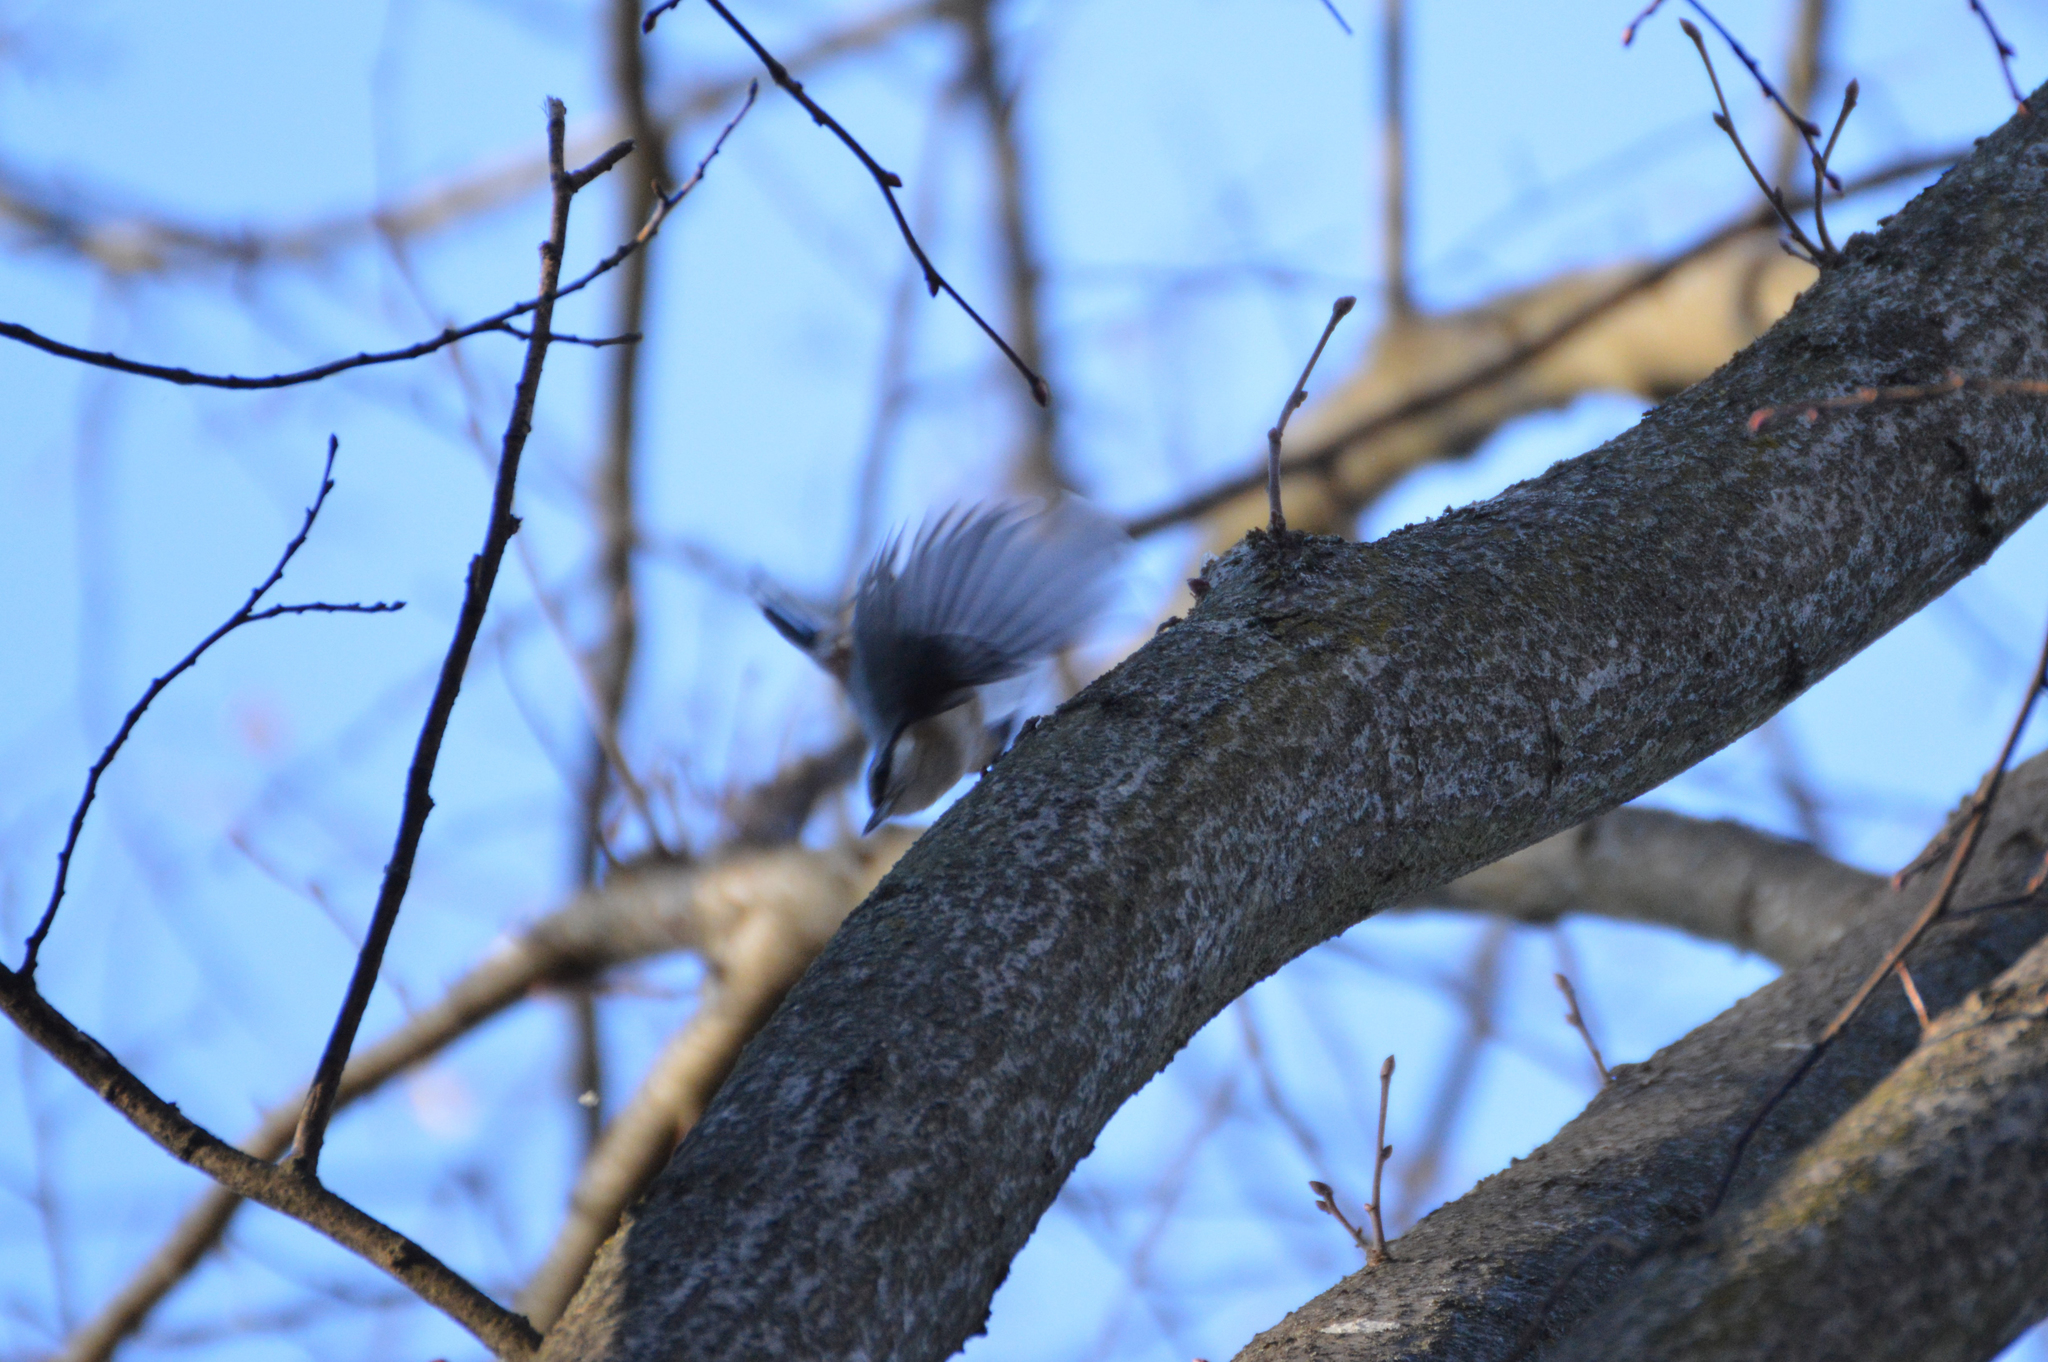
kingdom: Animalia
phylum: Chordata
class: Aves
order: Passeriformes
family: Sittidae
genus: Sitta
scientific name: Sitta europaea
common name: Eurasian nuthatch
